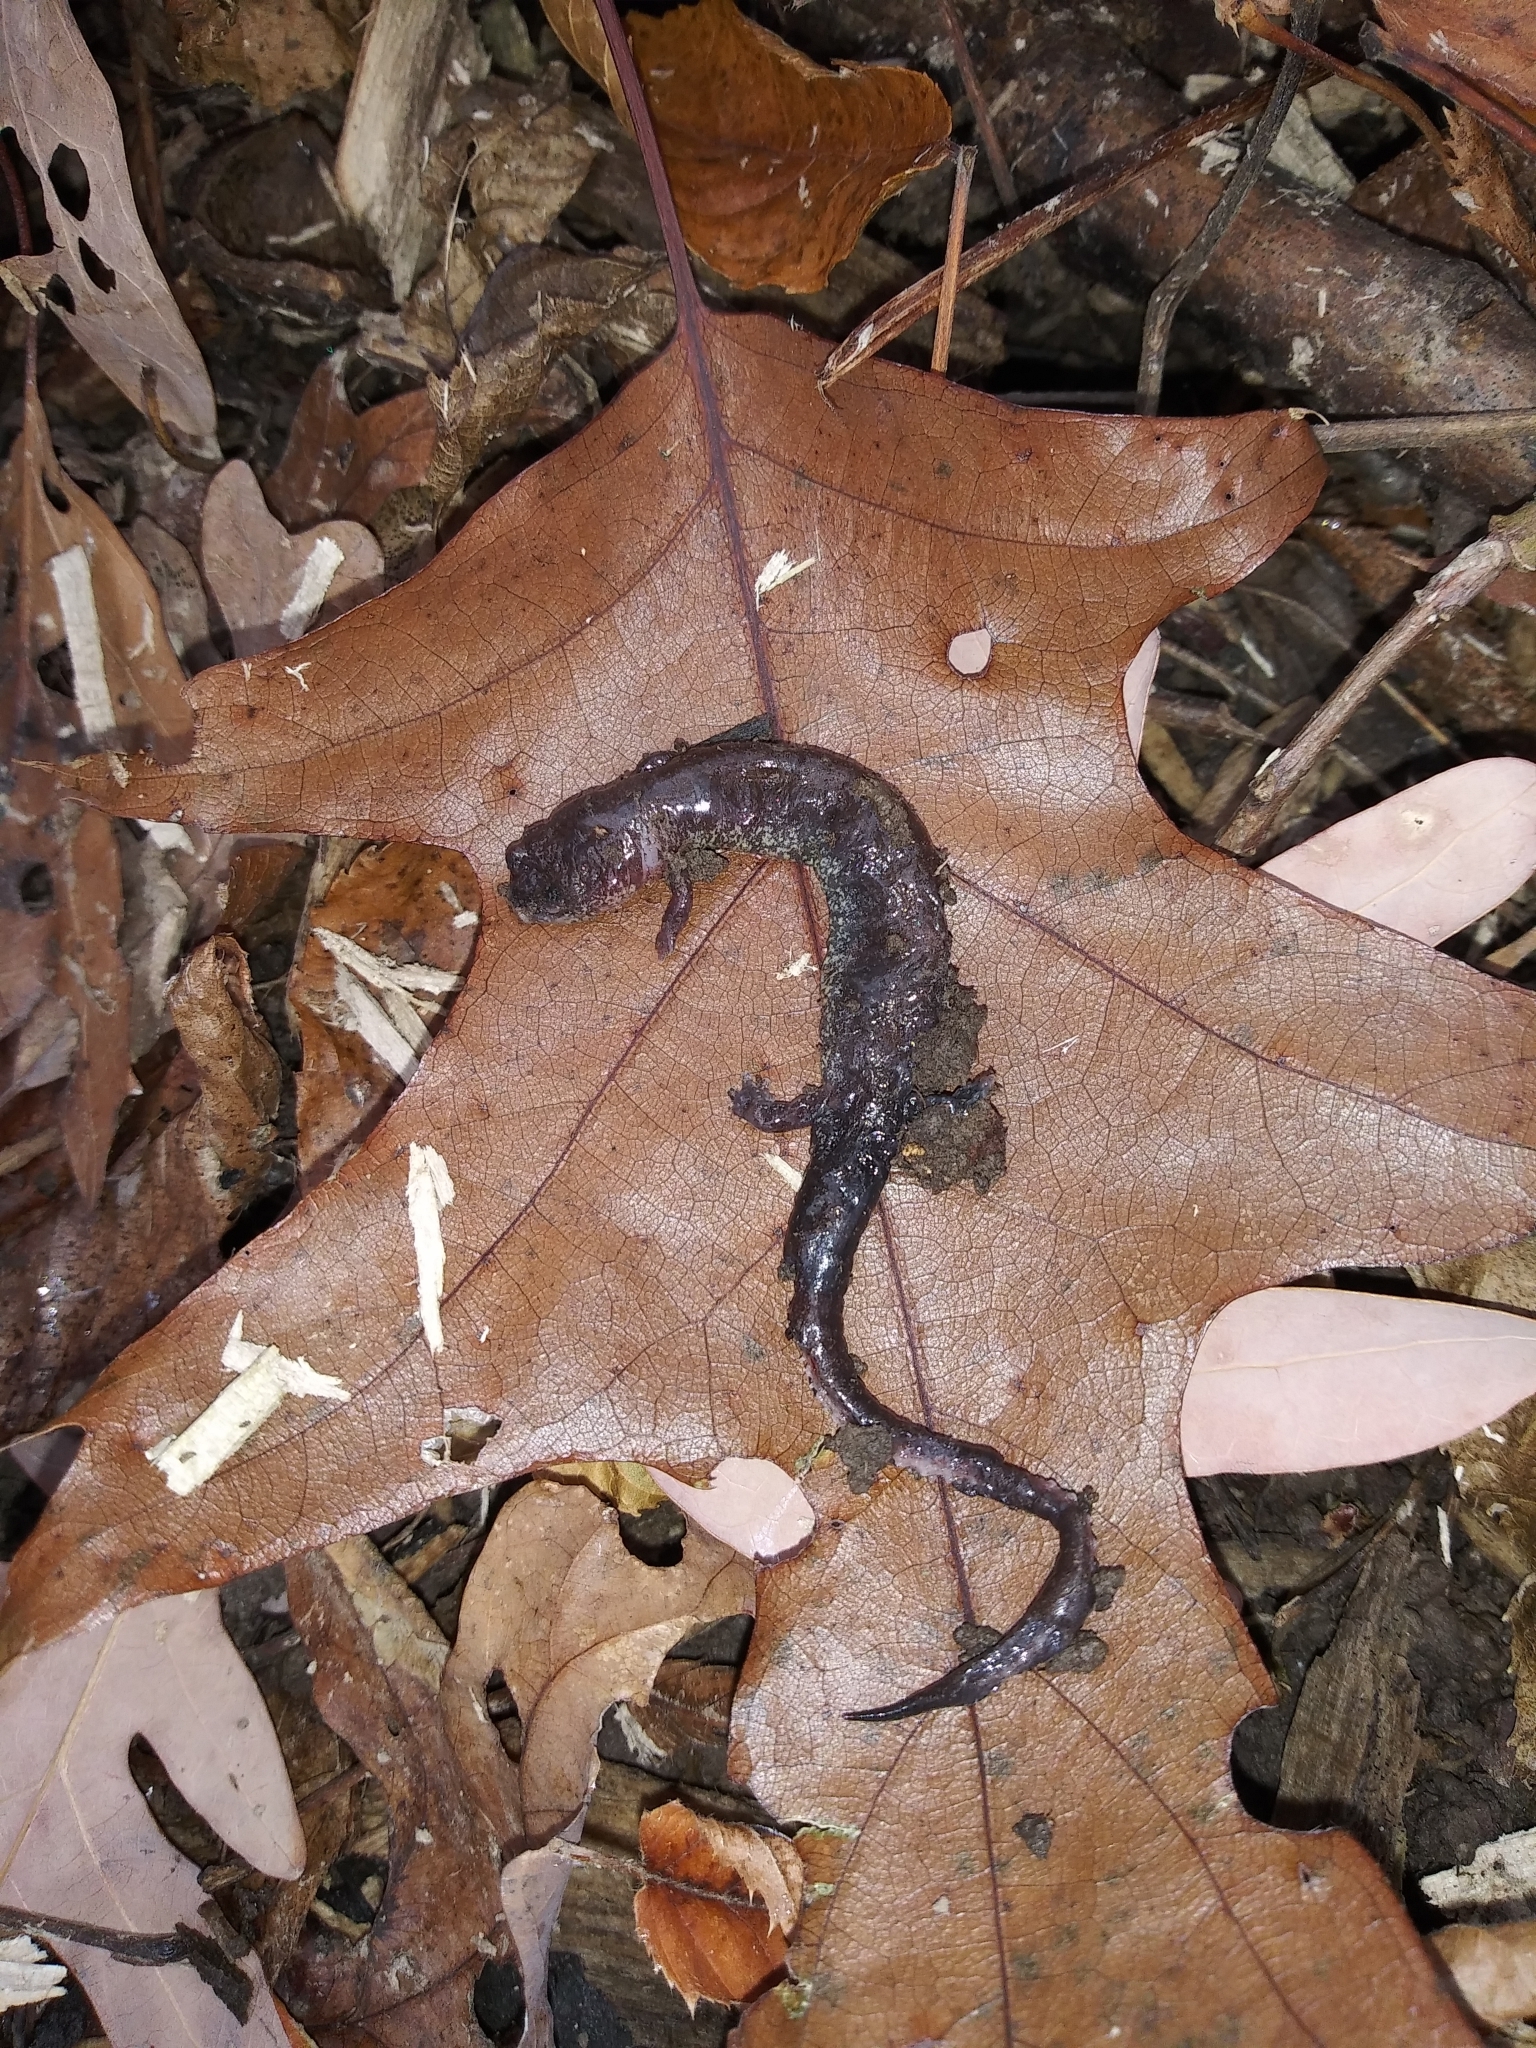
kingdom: Animalia
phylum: Chordata
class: Amphibia
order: Caudata
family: Plethodontidae
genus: Plethodon
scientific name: Plethodon electromorphus
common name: Northern ravine salamander
